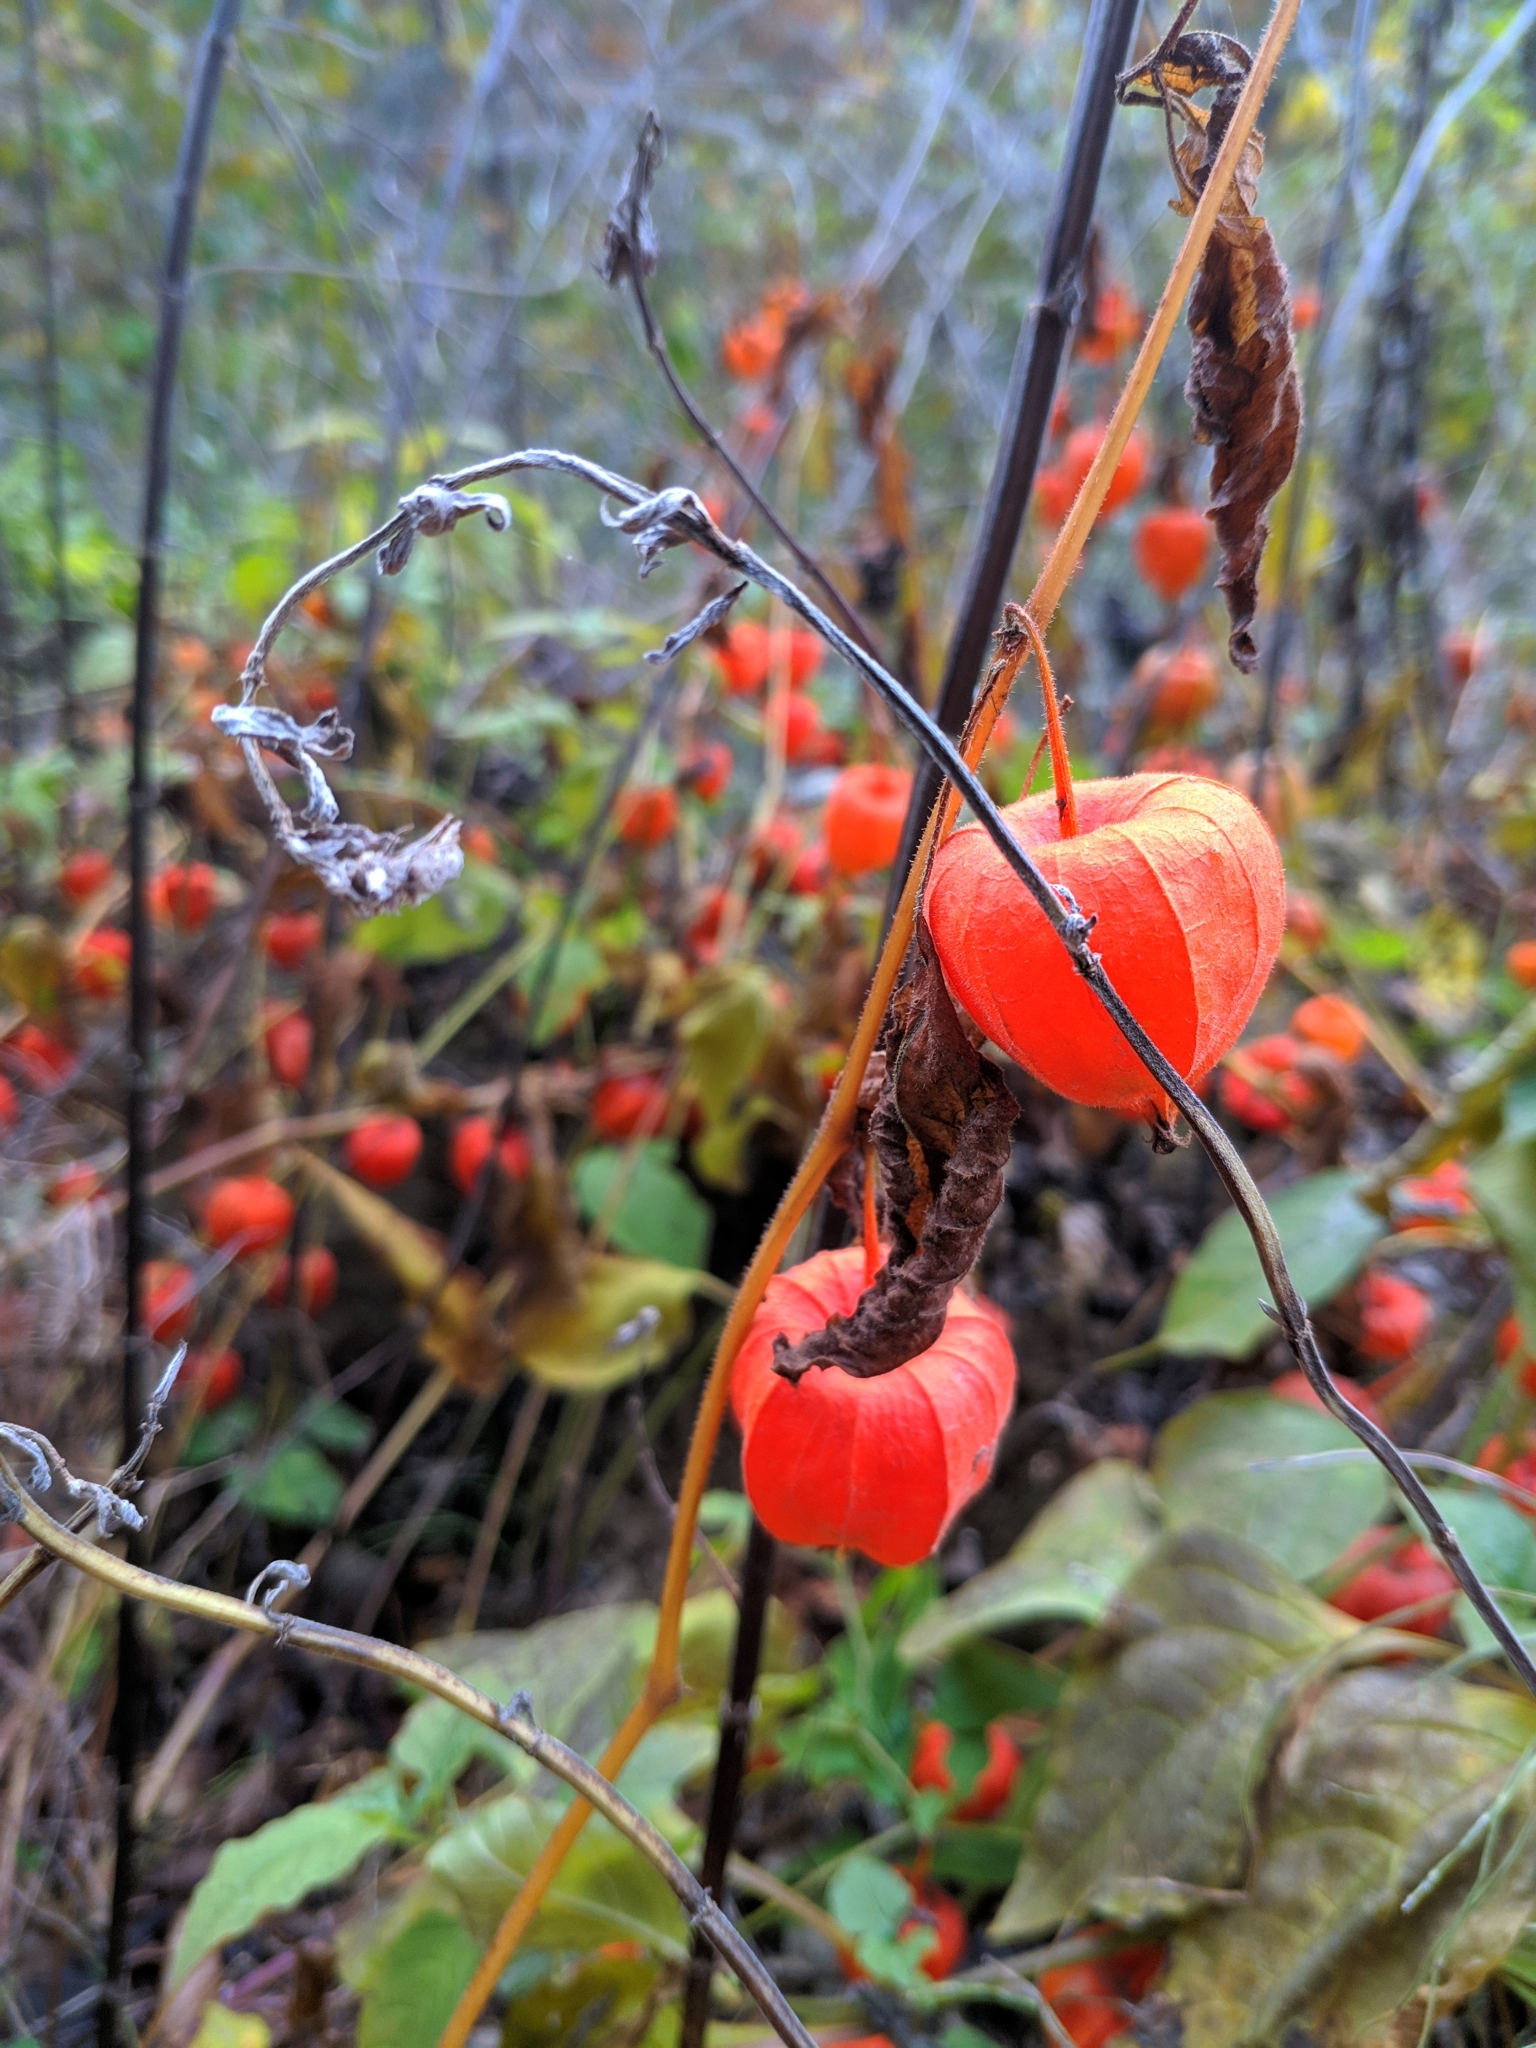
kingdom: Plantae
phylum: Tracheophyta
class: Magnoliopsida
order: Solanales
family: Solanaceae
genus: Alkekengi
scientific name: Alkekengi officinarum
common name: Japanese-lantern
